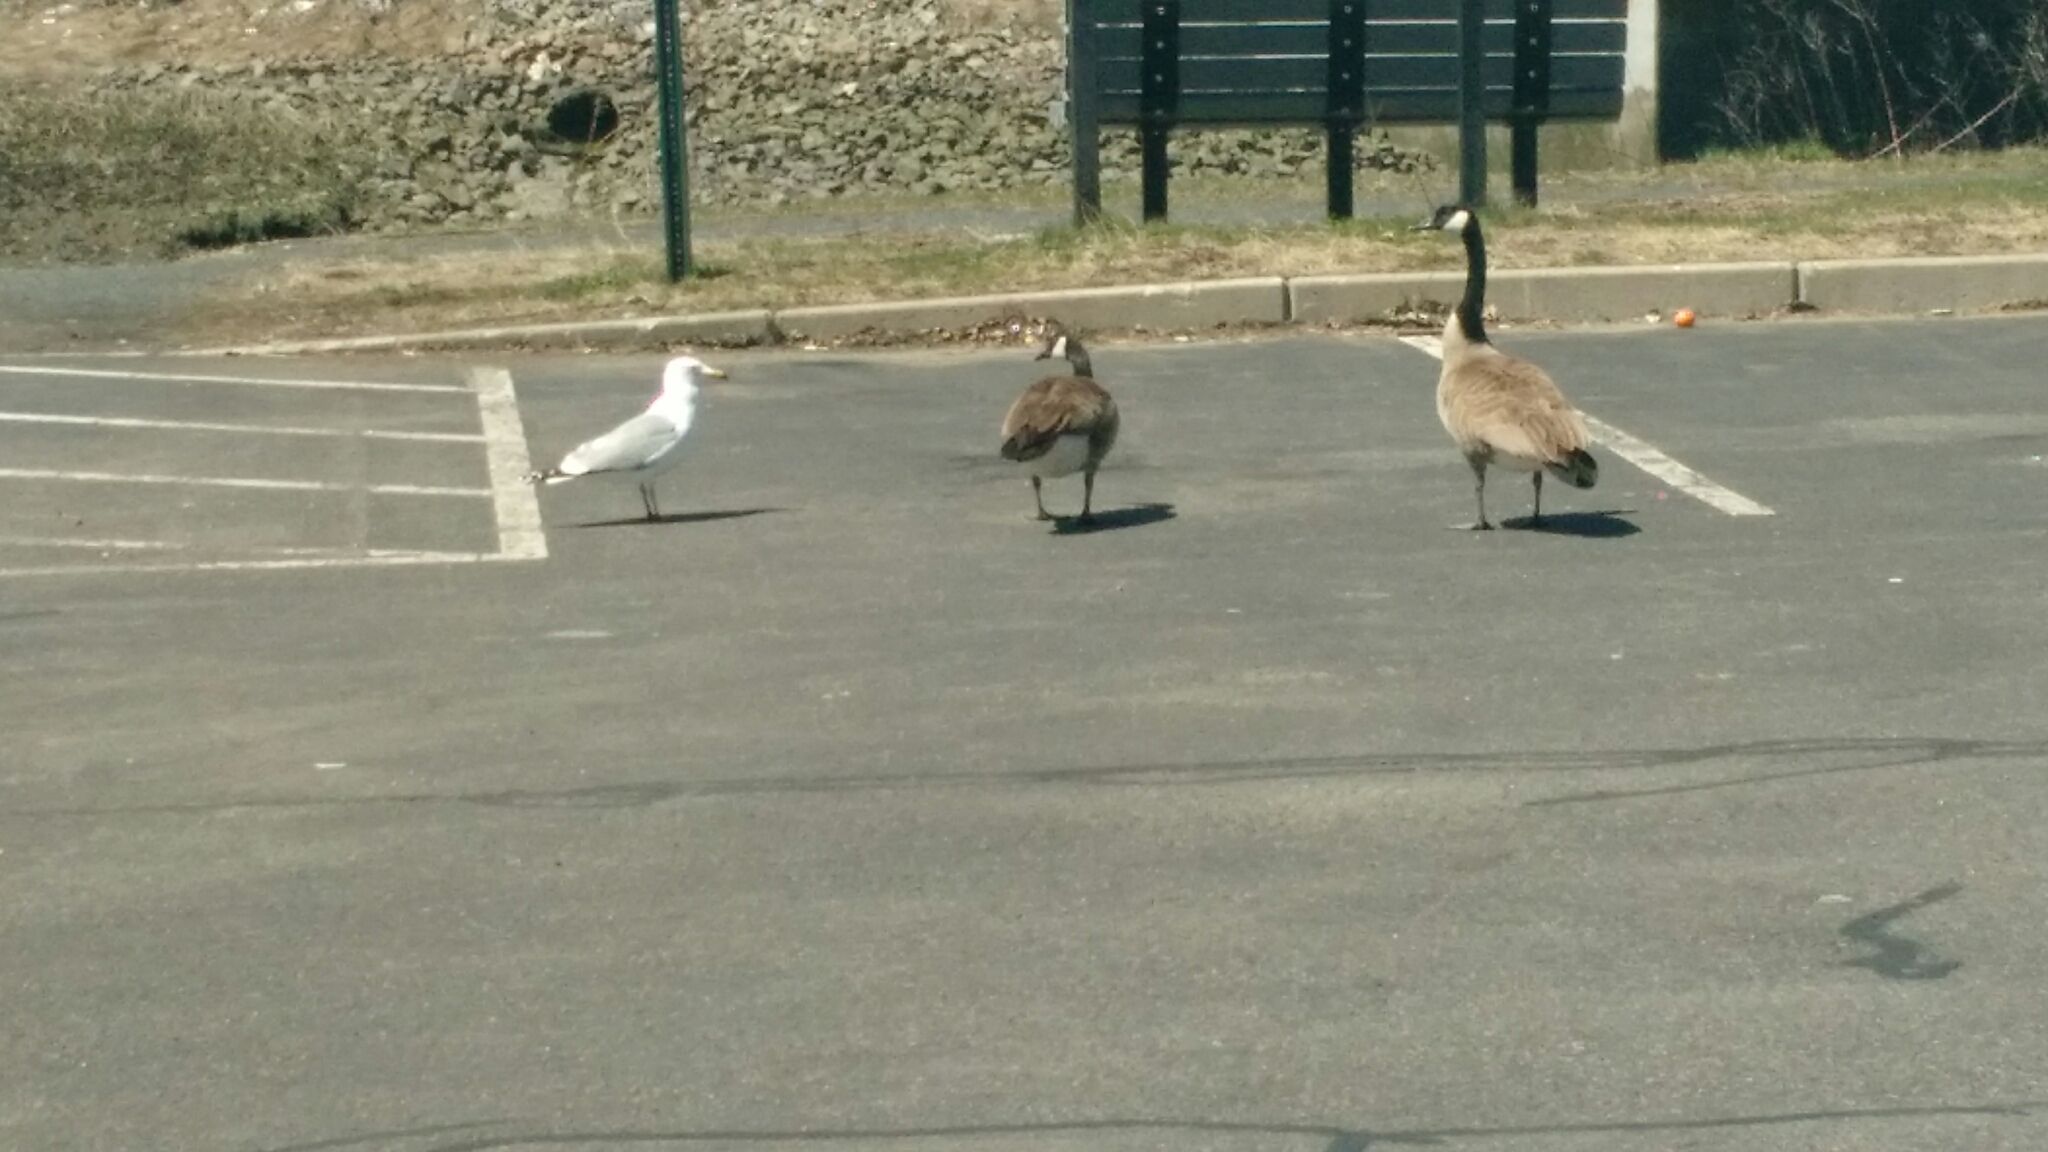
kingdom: Animalia
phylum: Chordata
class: Aves
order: Anseriformes
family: Anatidae
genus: Branta
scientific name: Branta canadensis
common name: Canada goose
